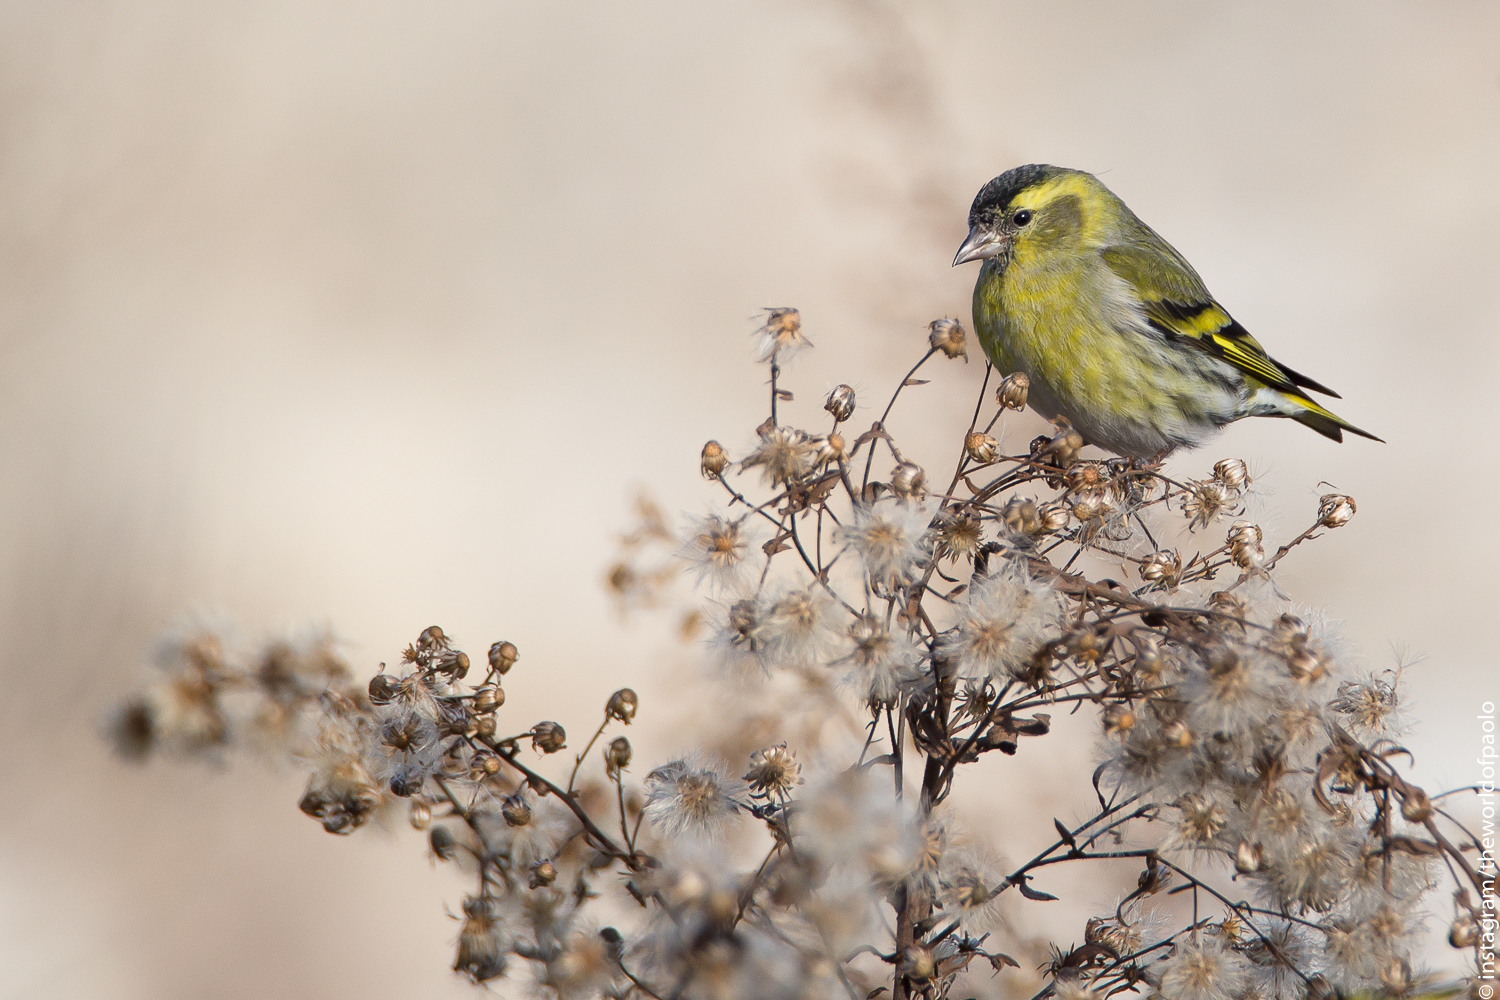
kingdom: Animalia
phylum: Chordata
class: Aves
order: Passeriformes
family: Fringillidae
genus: Spinus
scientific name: Spinus spinus
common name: Eurasian siskin
